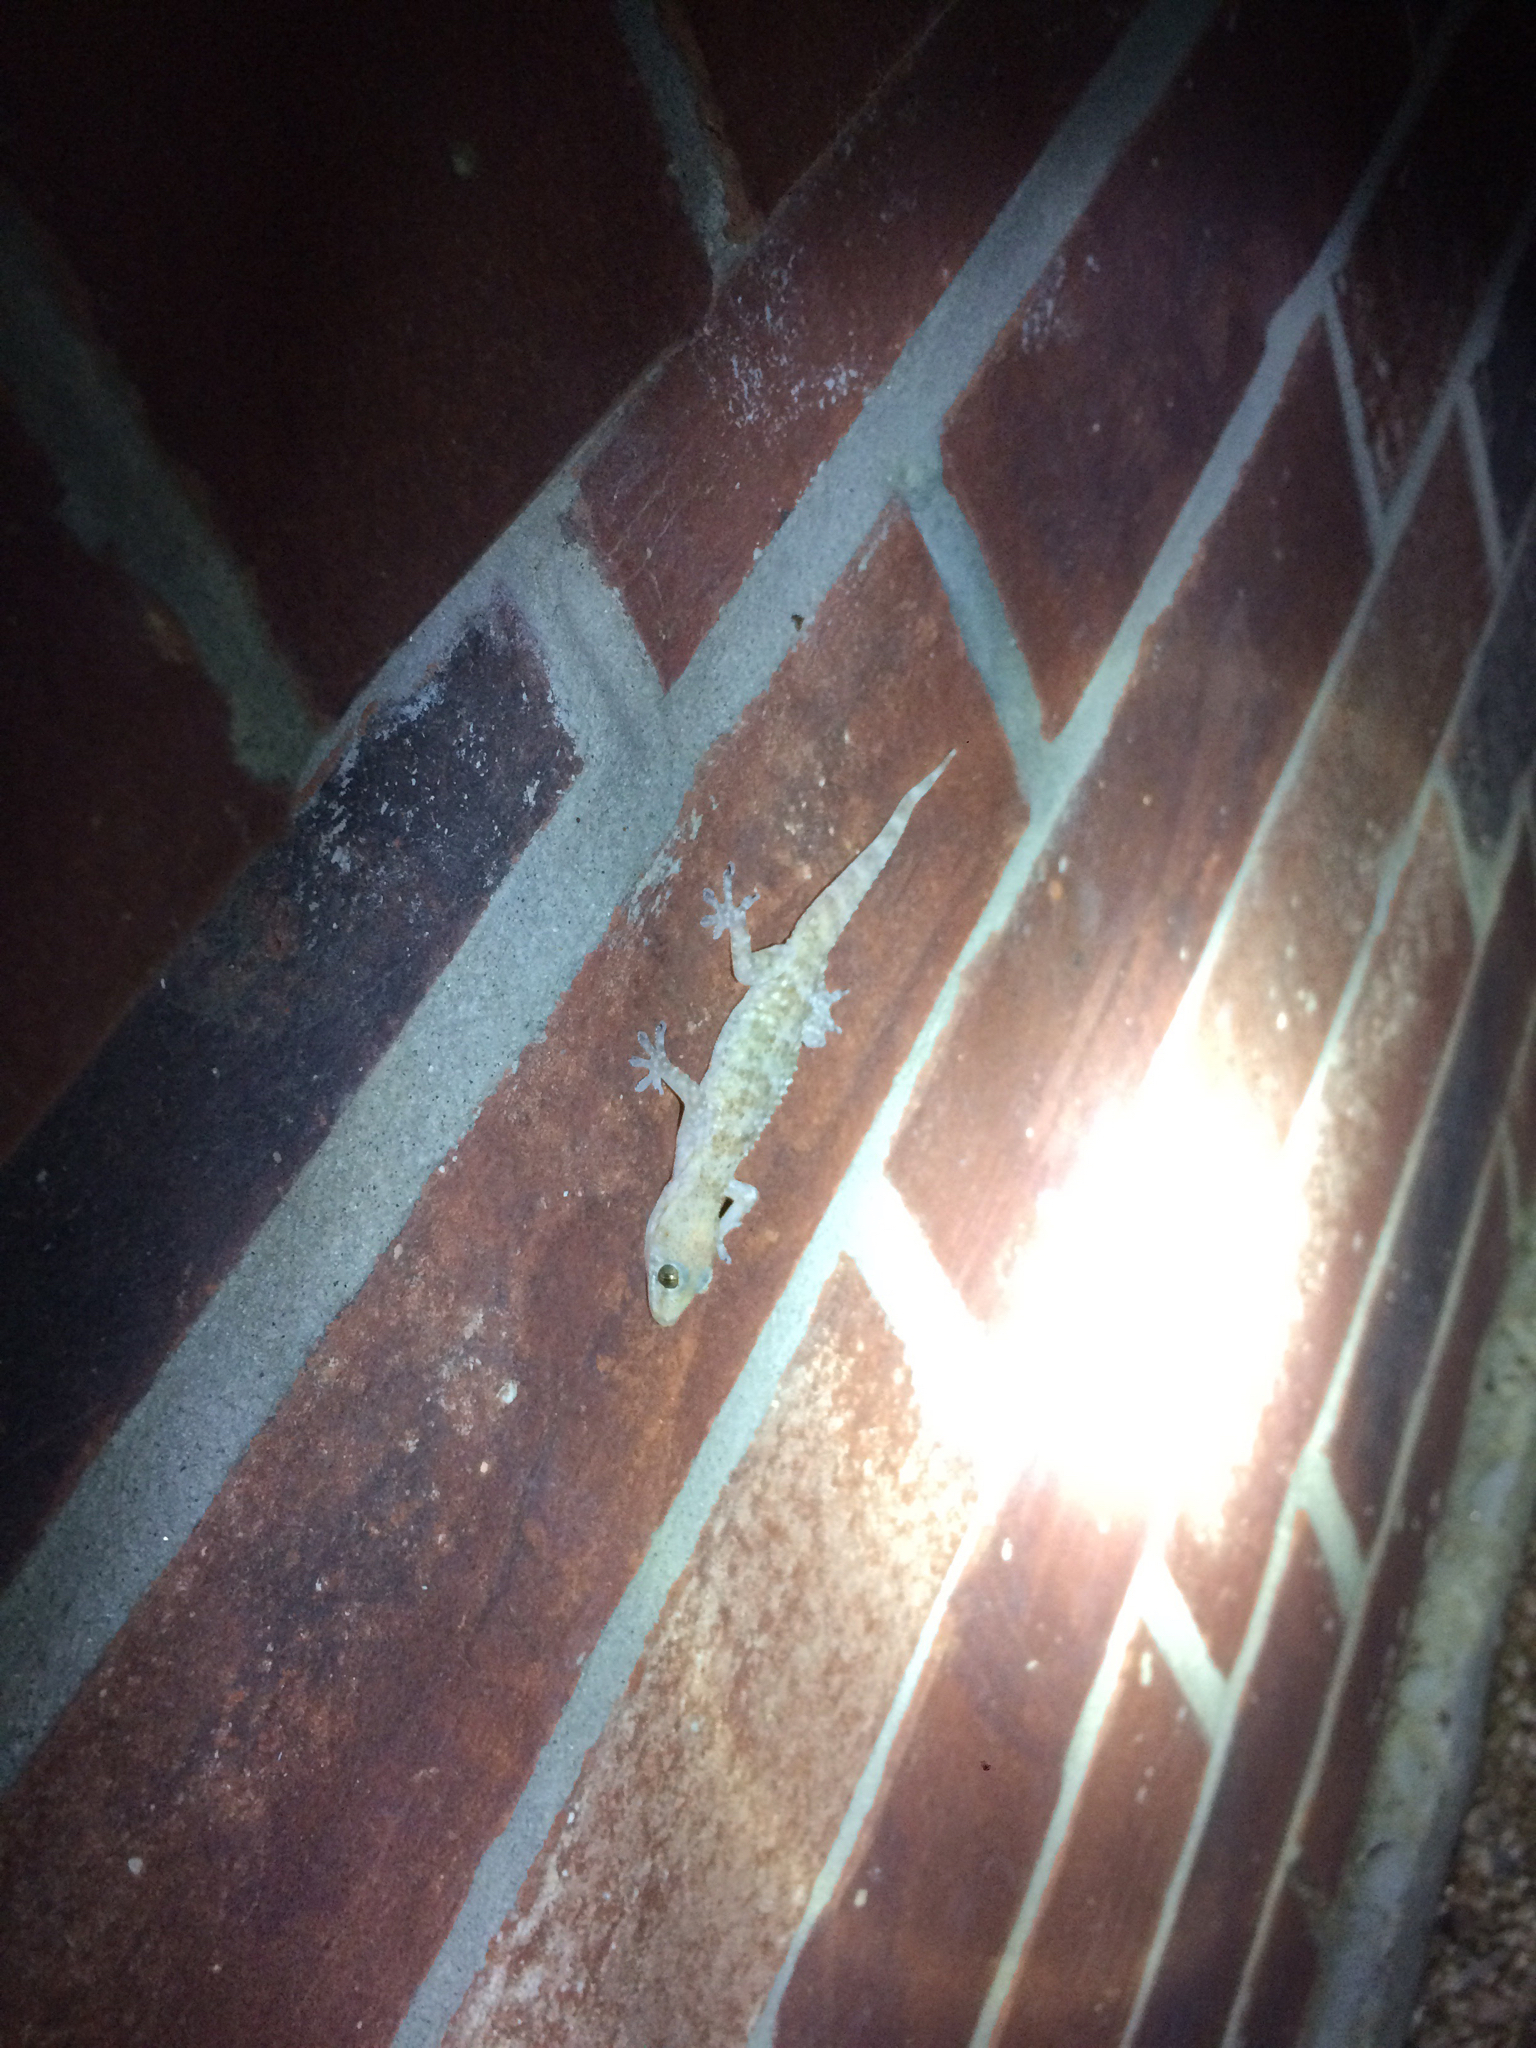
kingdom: Animalia
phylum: Chordata
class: Squamata
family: Gekkonidae
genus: Hemidactylus
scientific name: Hemidactylus turcicus
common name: Turkish gecko
